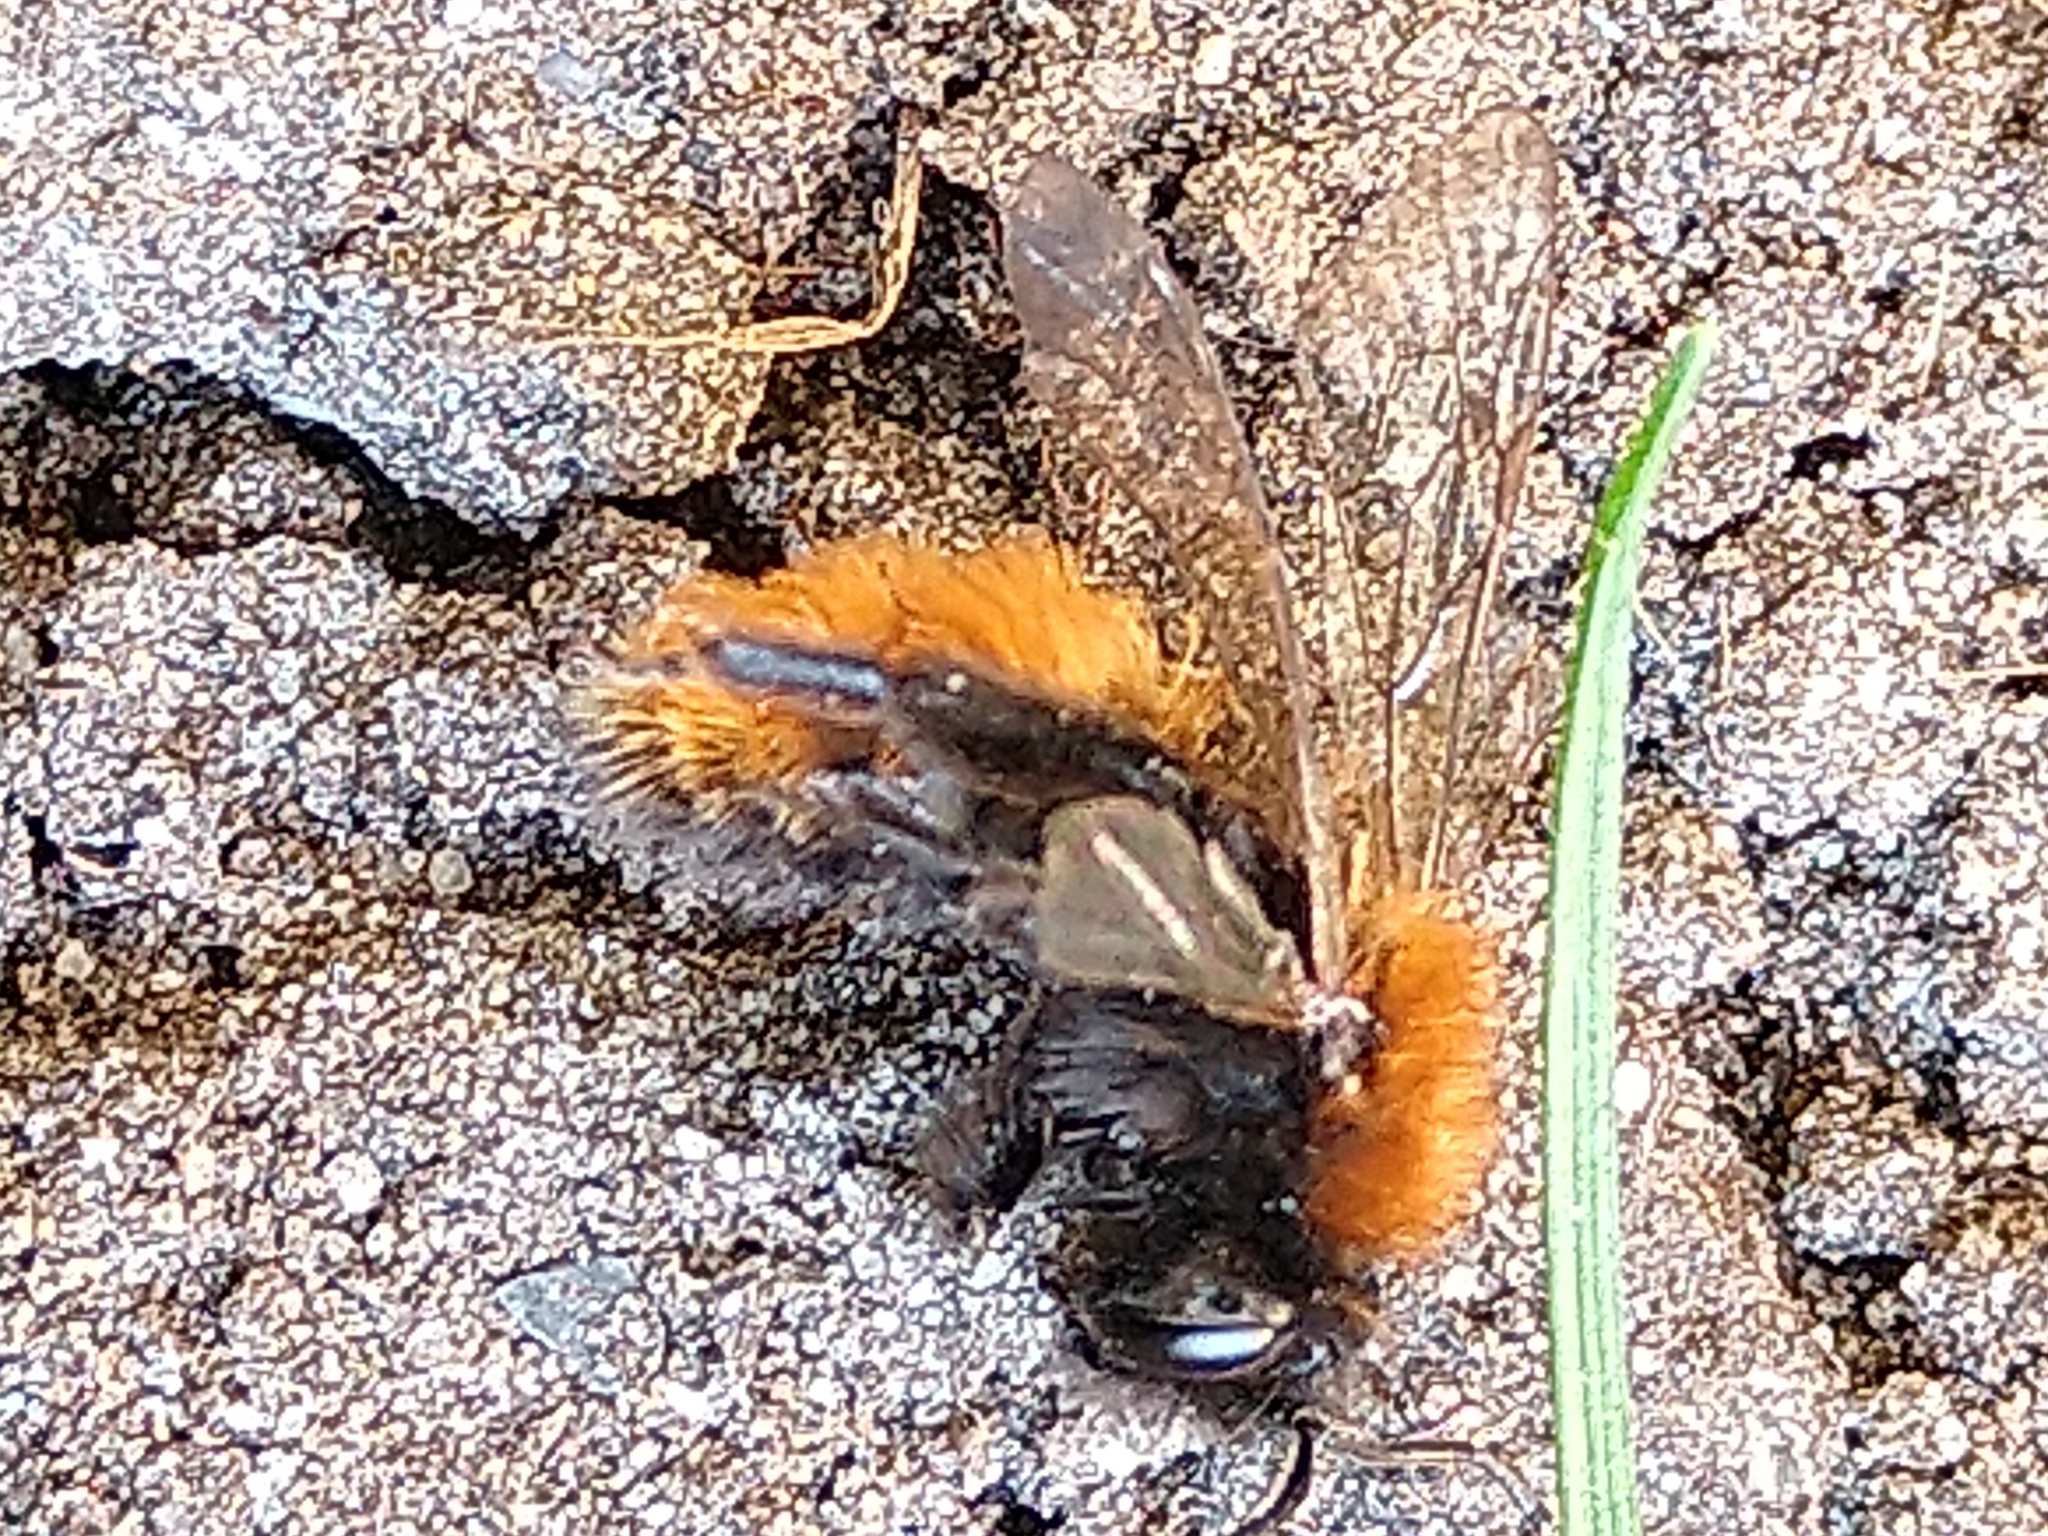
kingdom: Animalia
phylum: Arthropoda
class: Insecta
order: Hymenoptera
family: Andrenidae
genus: Andrena
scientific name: Andrena fulva
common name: Tawny mining bee
